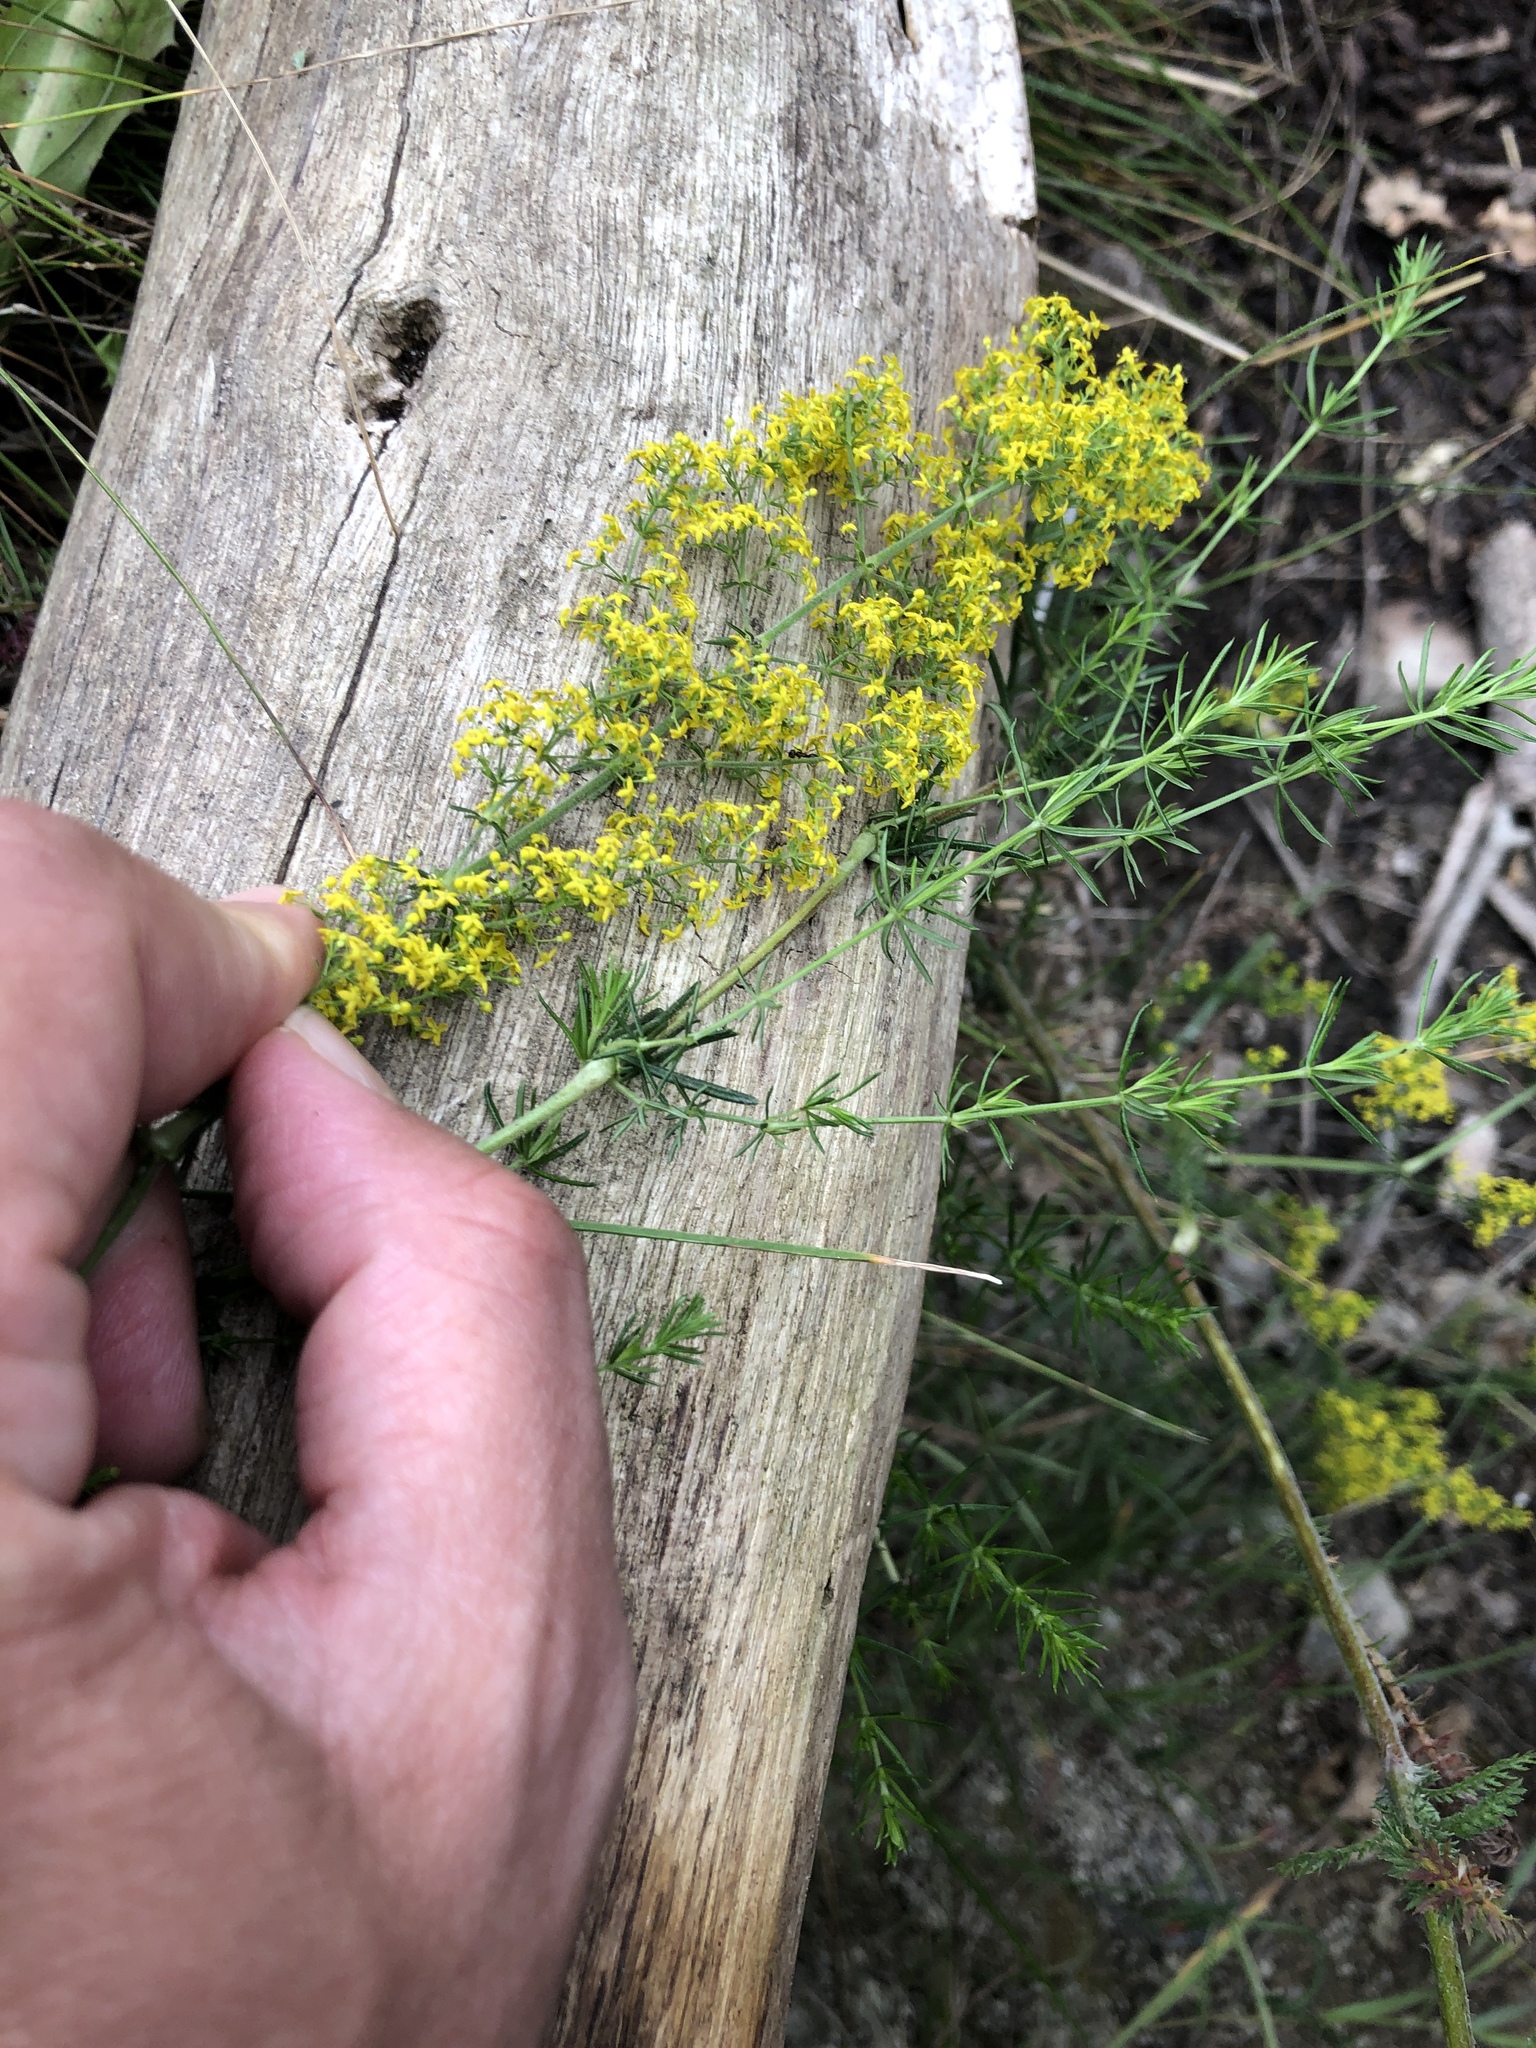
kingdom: Plantae
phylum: Tracheophyta
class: Magnoliopsida
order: Gentianales
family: Rubiaceae
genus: Galium
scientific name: Galium verum
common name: Lady's bedstraw
